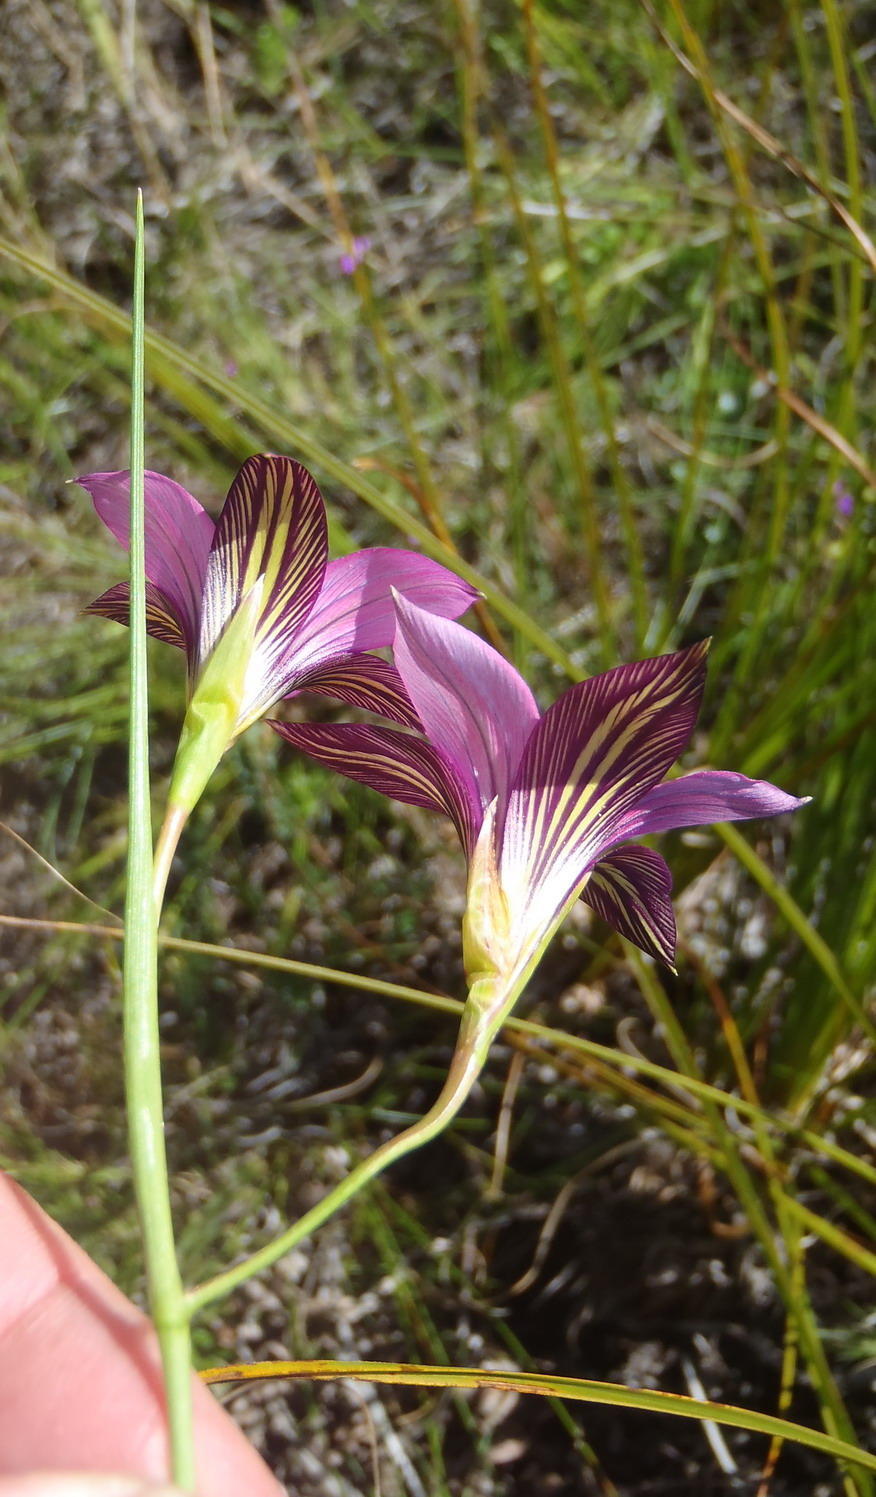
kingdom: Plantae
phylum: Tracheophyta
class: Liliopsida
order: Asparagales
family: Iridaceae
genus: Romulea
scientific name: Romulea fibrosa
